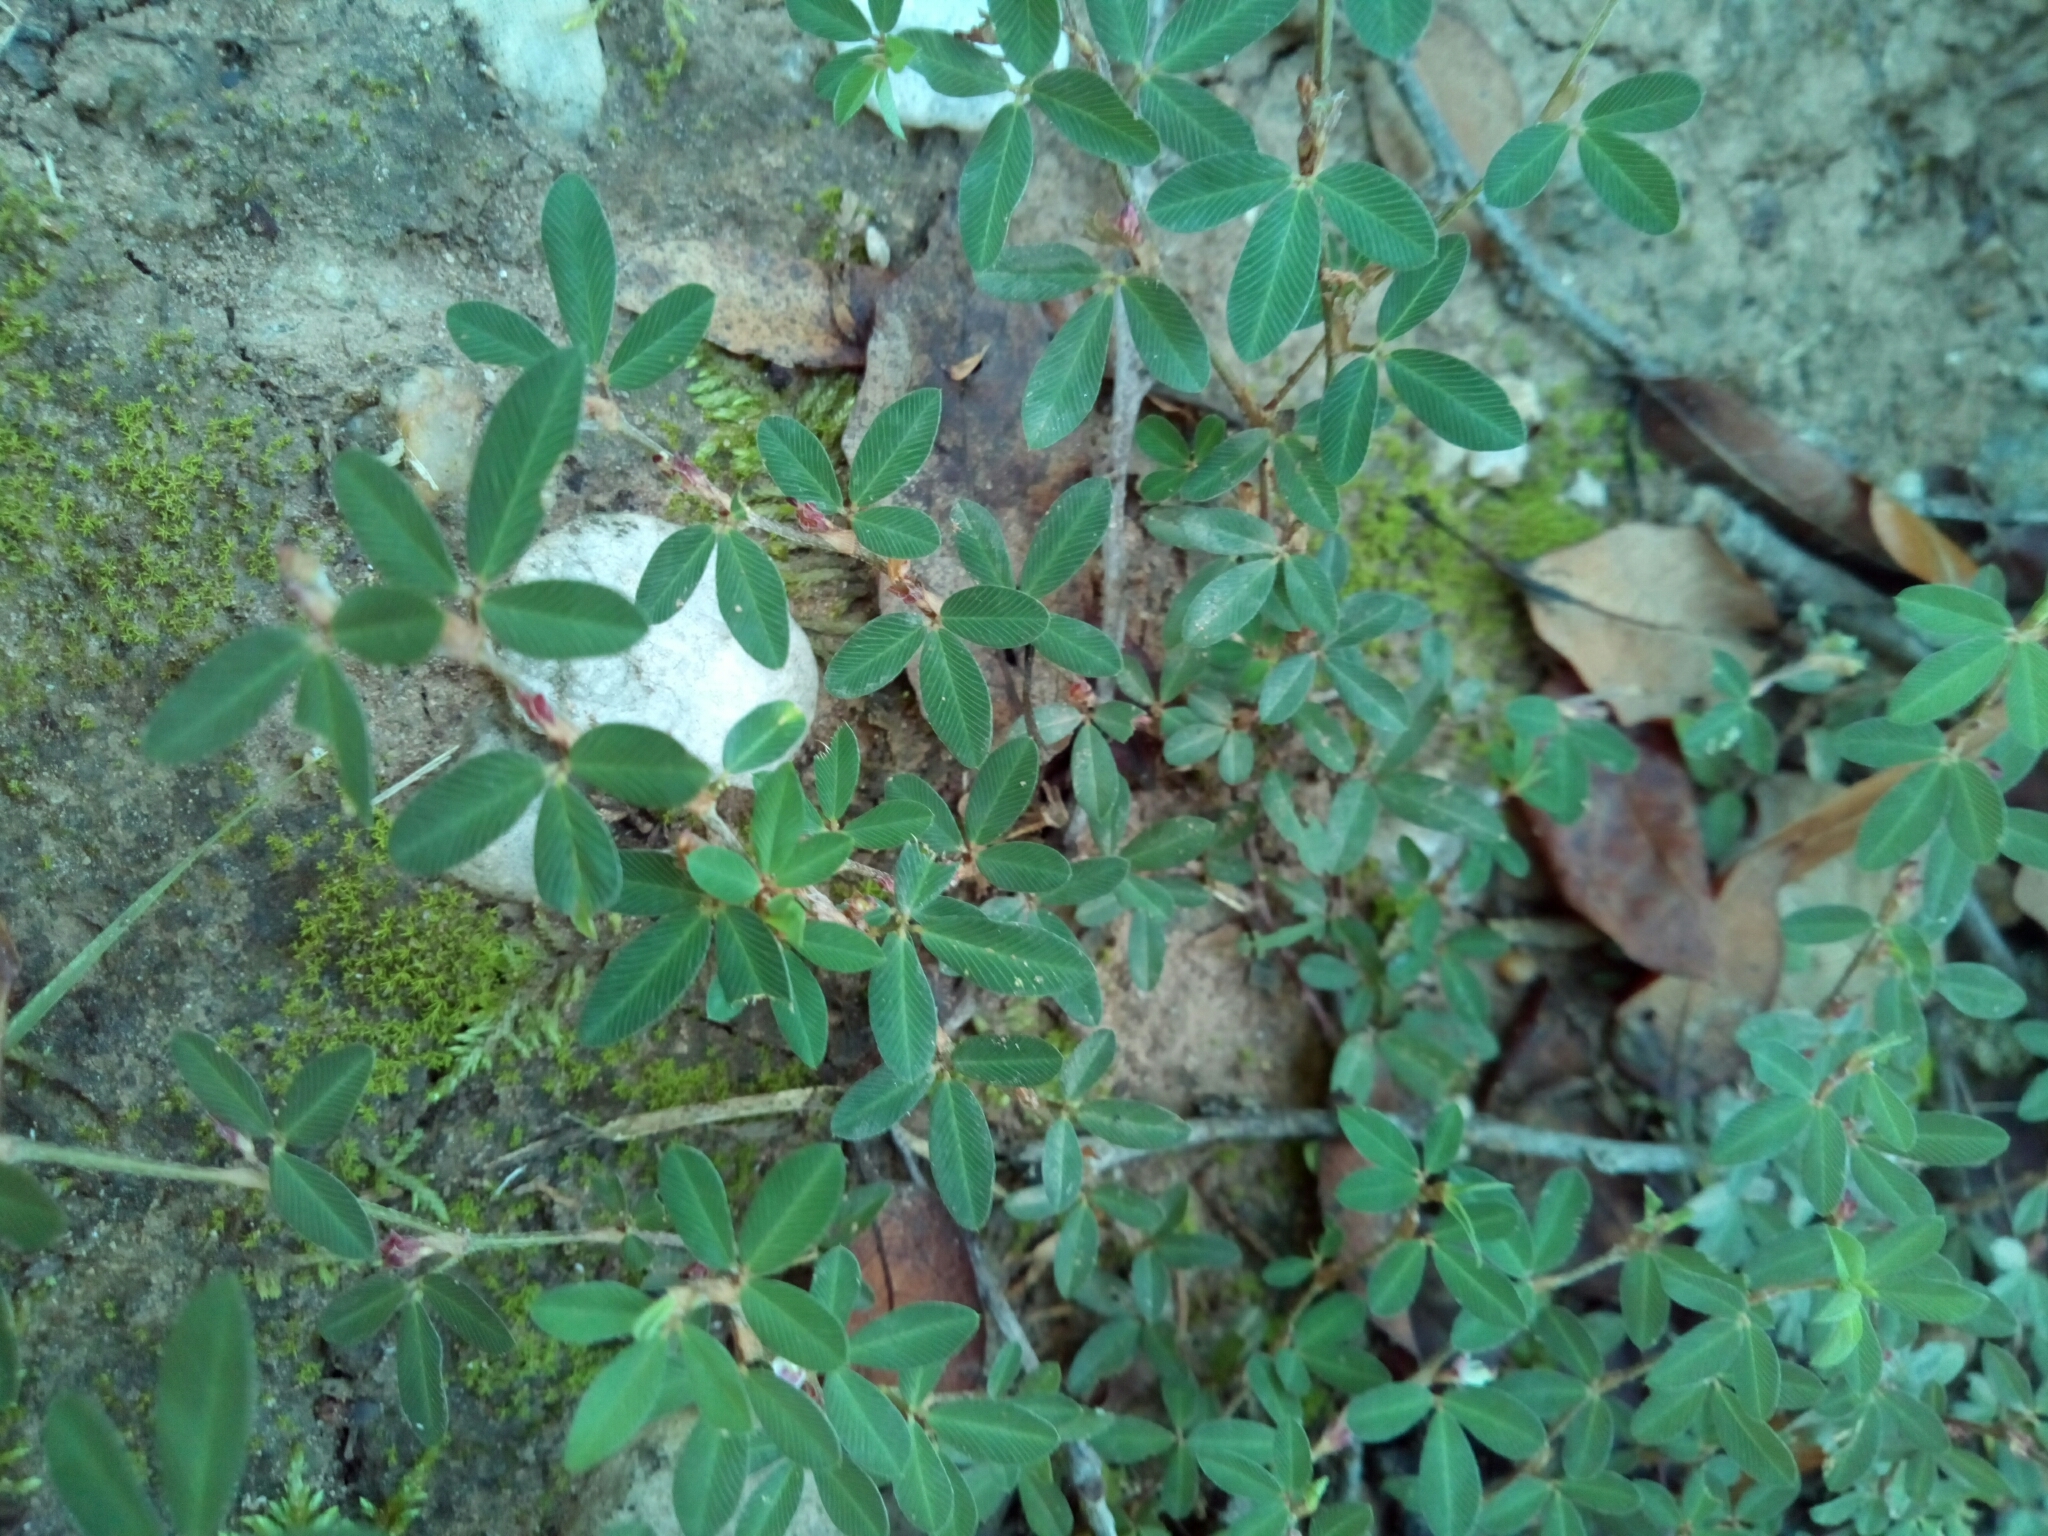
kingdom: Plantae
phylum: Tracheophyta
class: Magnoliopsida
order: Fabales
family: Fabaceae
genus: Kummerowia
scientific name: Kummerowia striata
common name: Japanese clover
